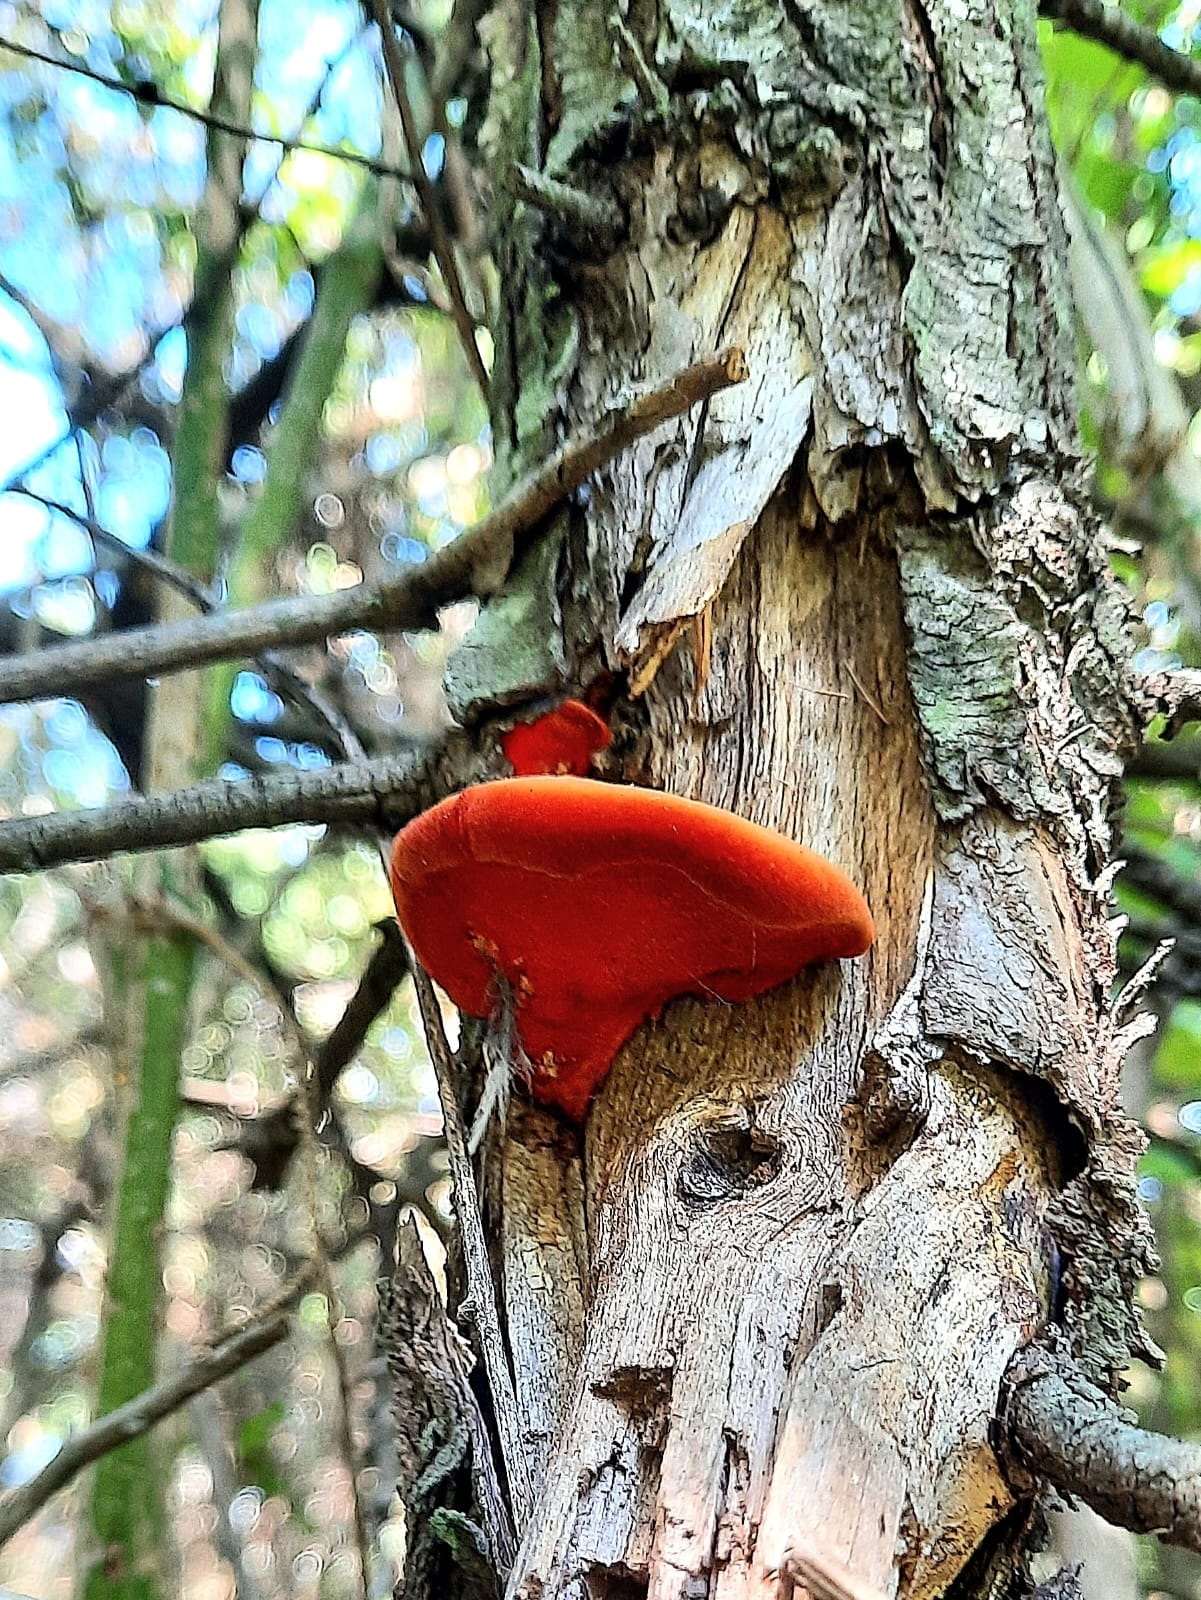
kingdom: Fungi
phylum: Basidiomycota
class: Agaricomycetes
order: Polyporales
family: Polyporaceae
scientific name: Polyporaceae
